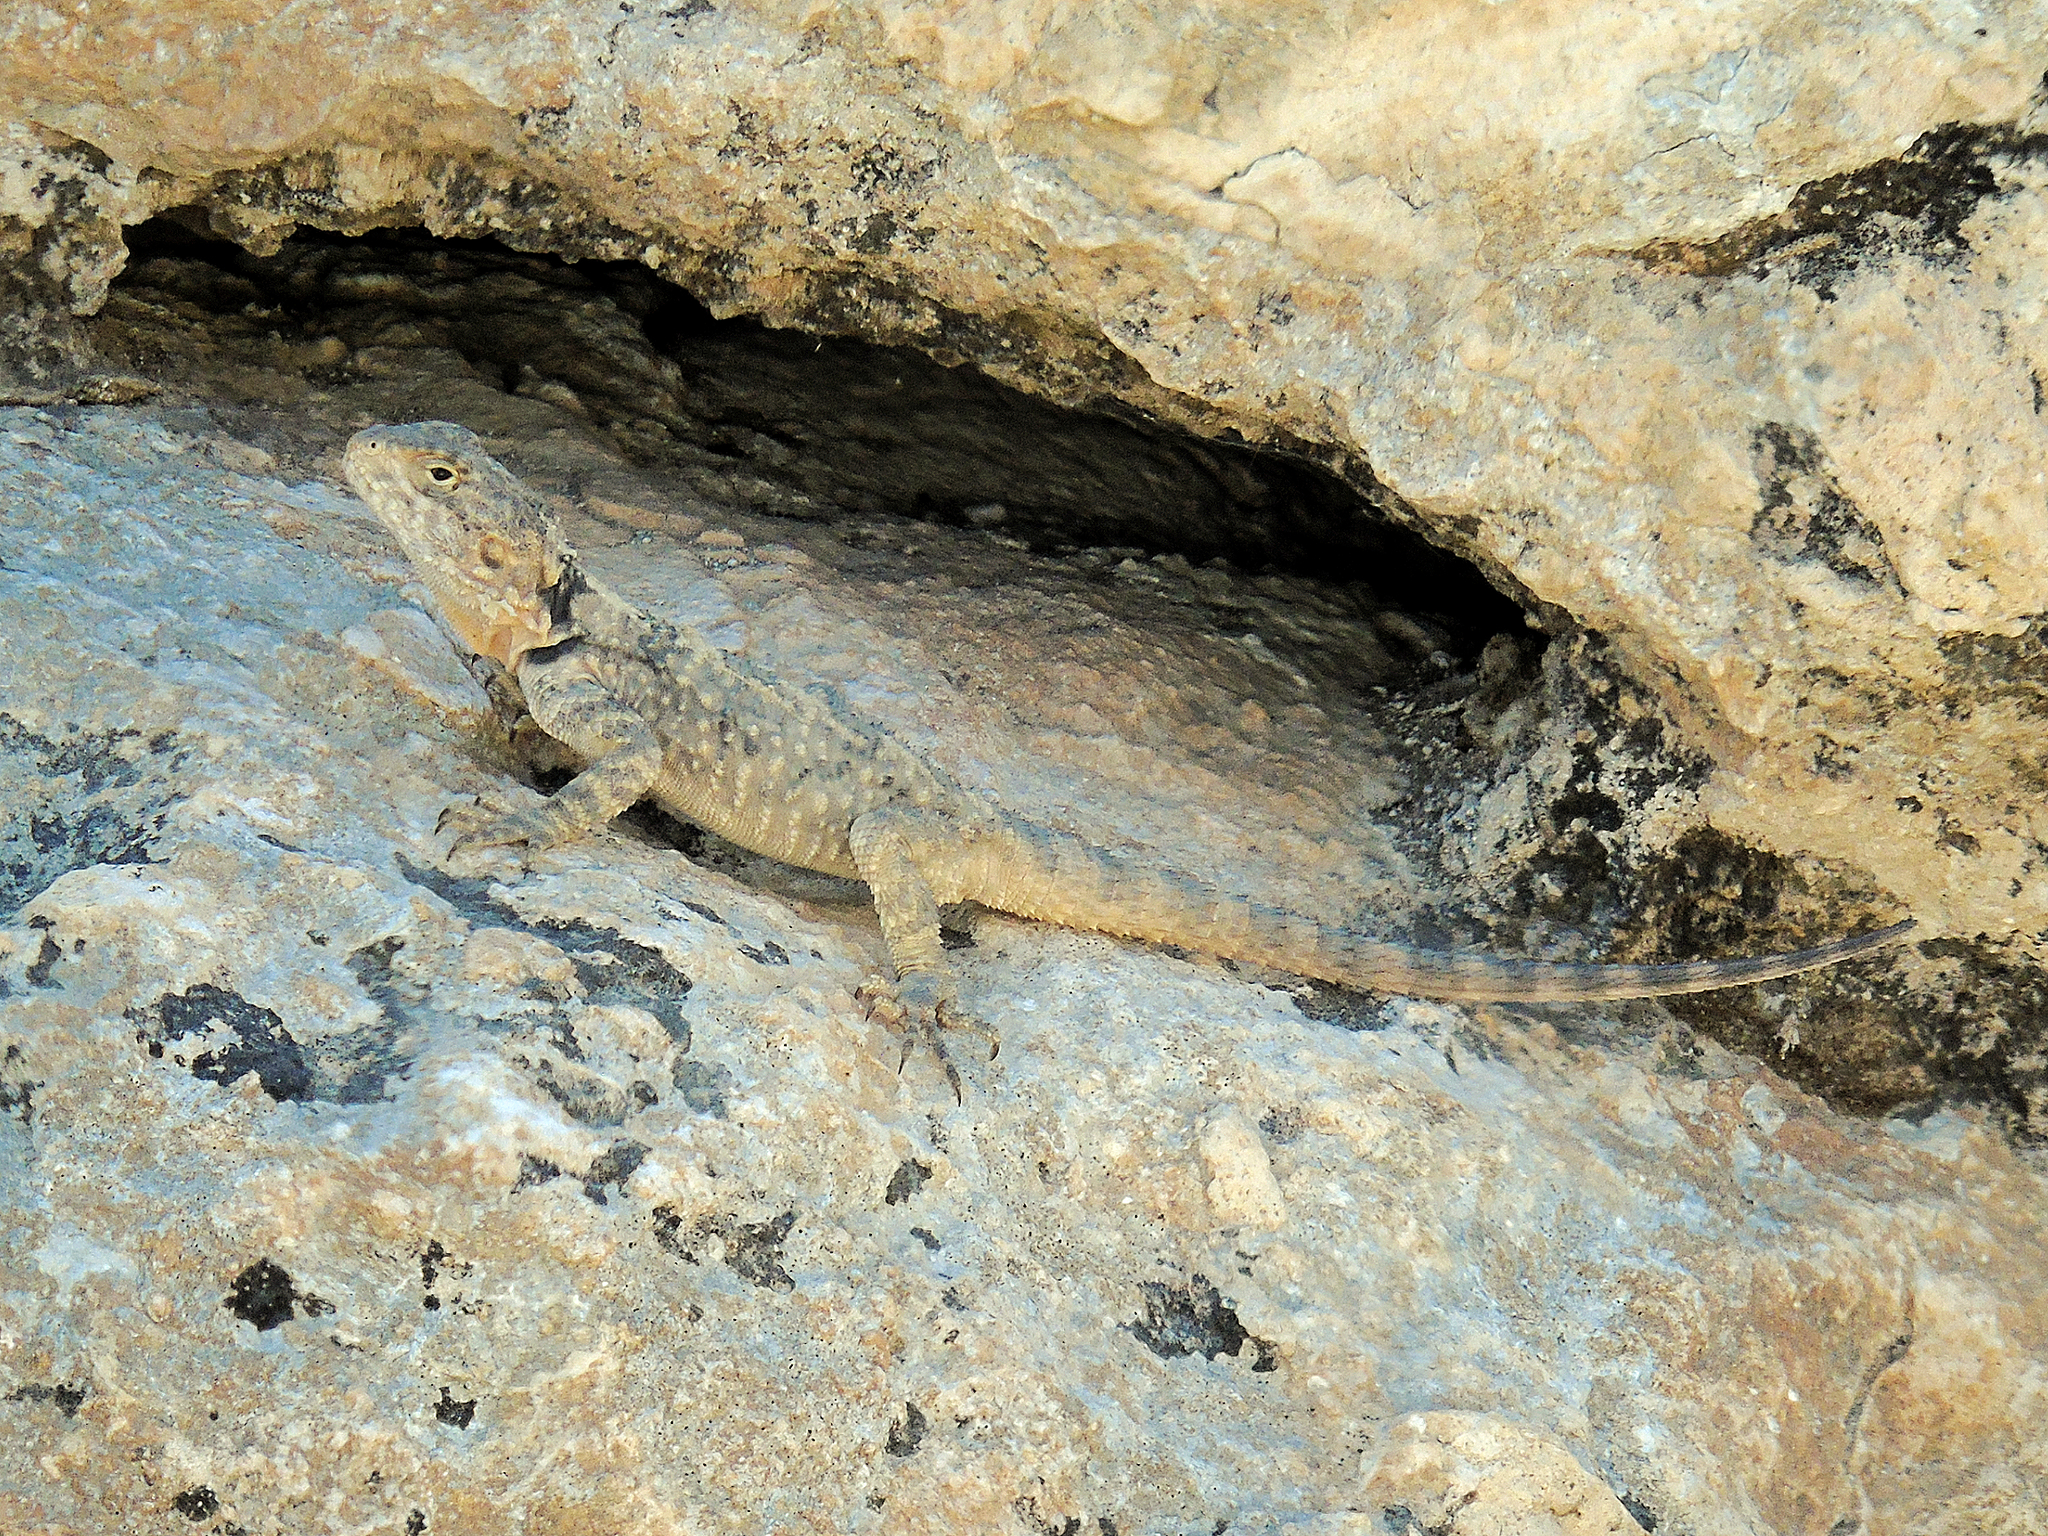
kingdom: Animalia
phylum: Chordata
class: Squamata
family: Agamidae
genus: Stellagama
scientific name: Stellagama stellio
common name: Starred agama
